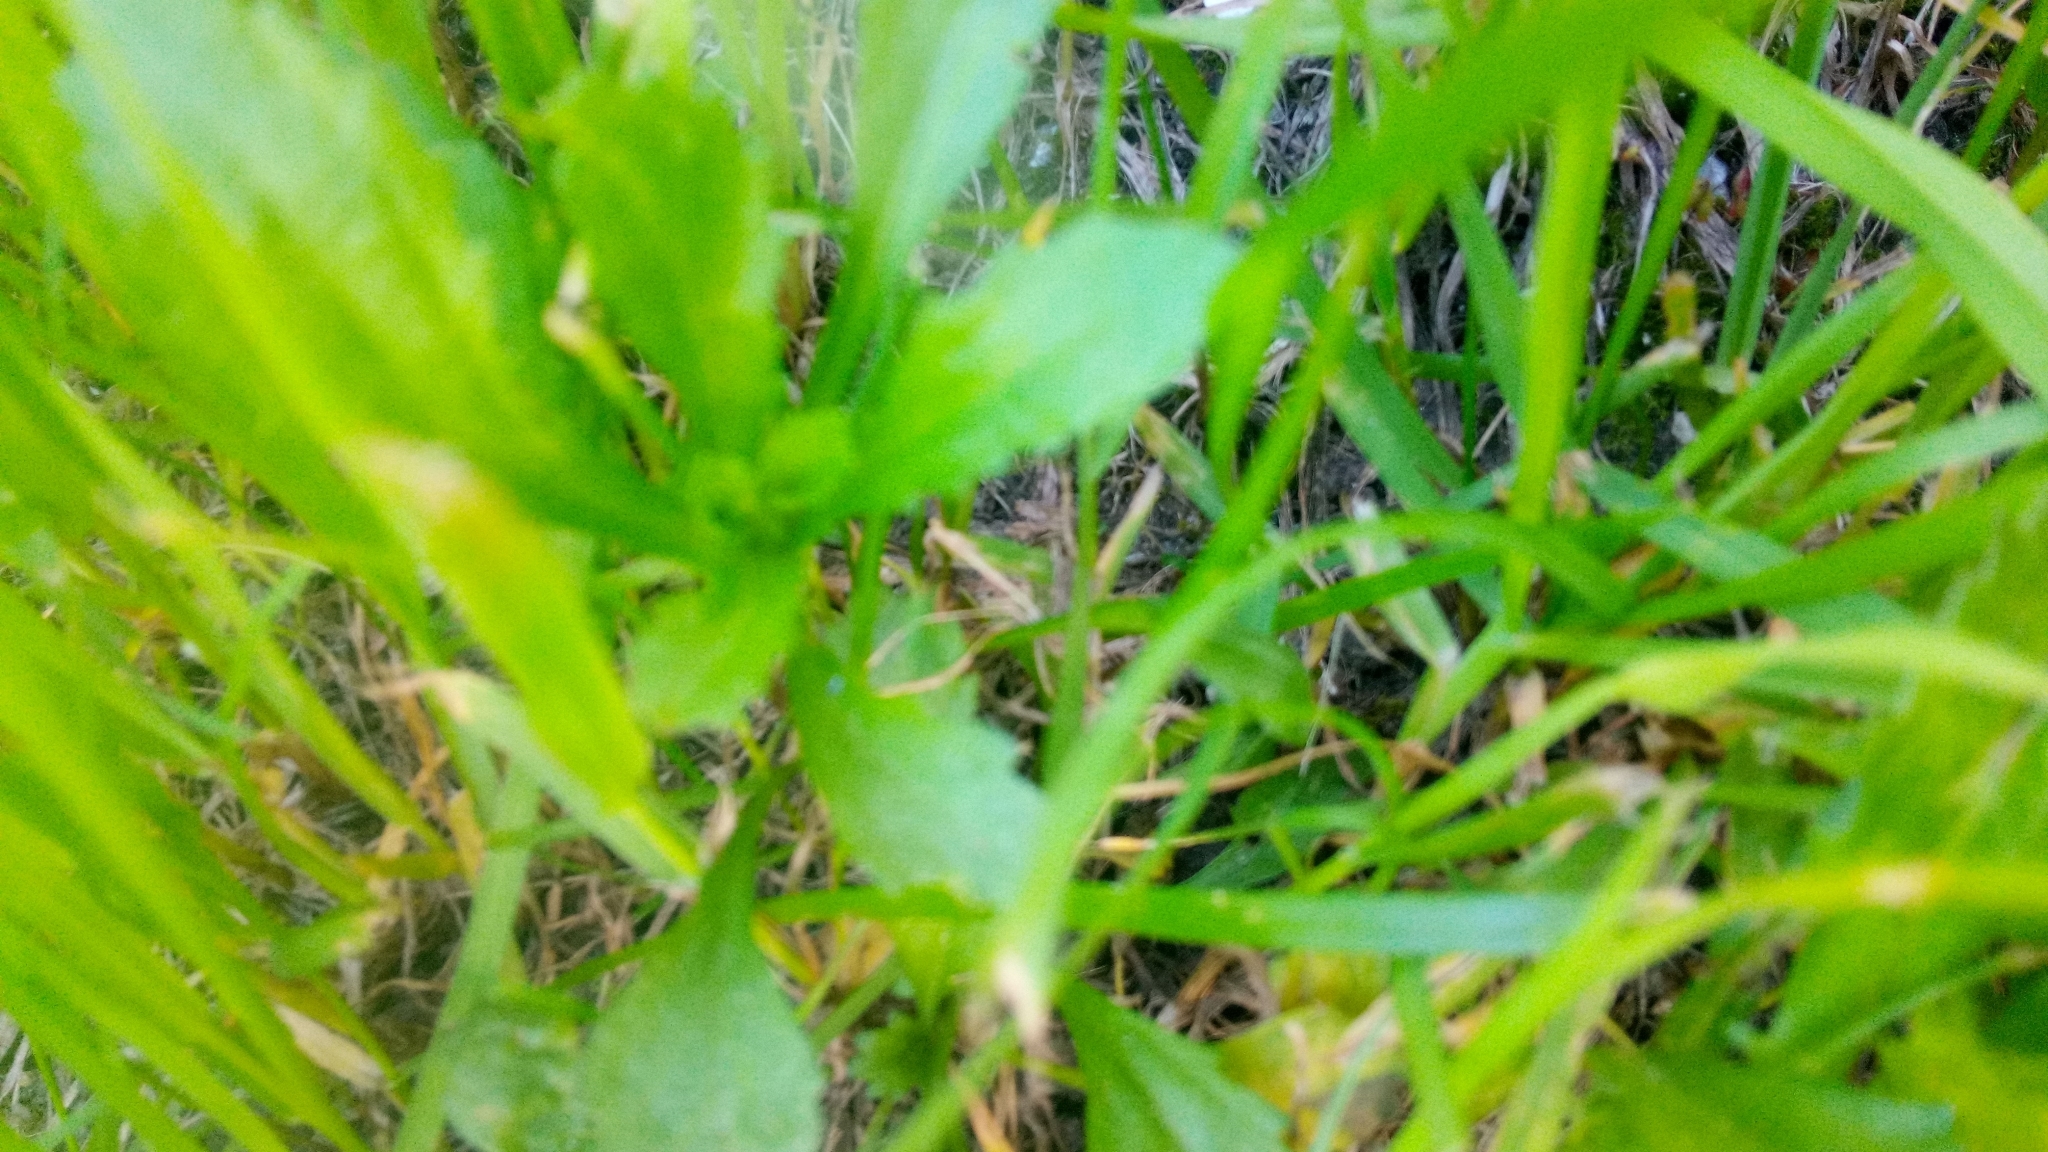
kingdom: Plantae
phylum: Tracheophyta
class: Magnoliopsida
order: Asterales
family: Asteraceae
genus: Leucanthemum
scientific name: Leucanthemum vulgare
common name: Oxeye daisy
